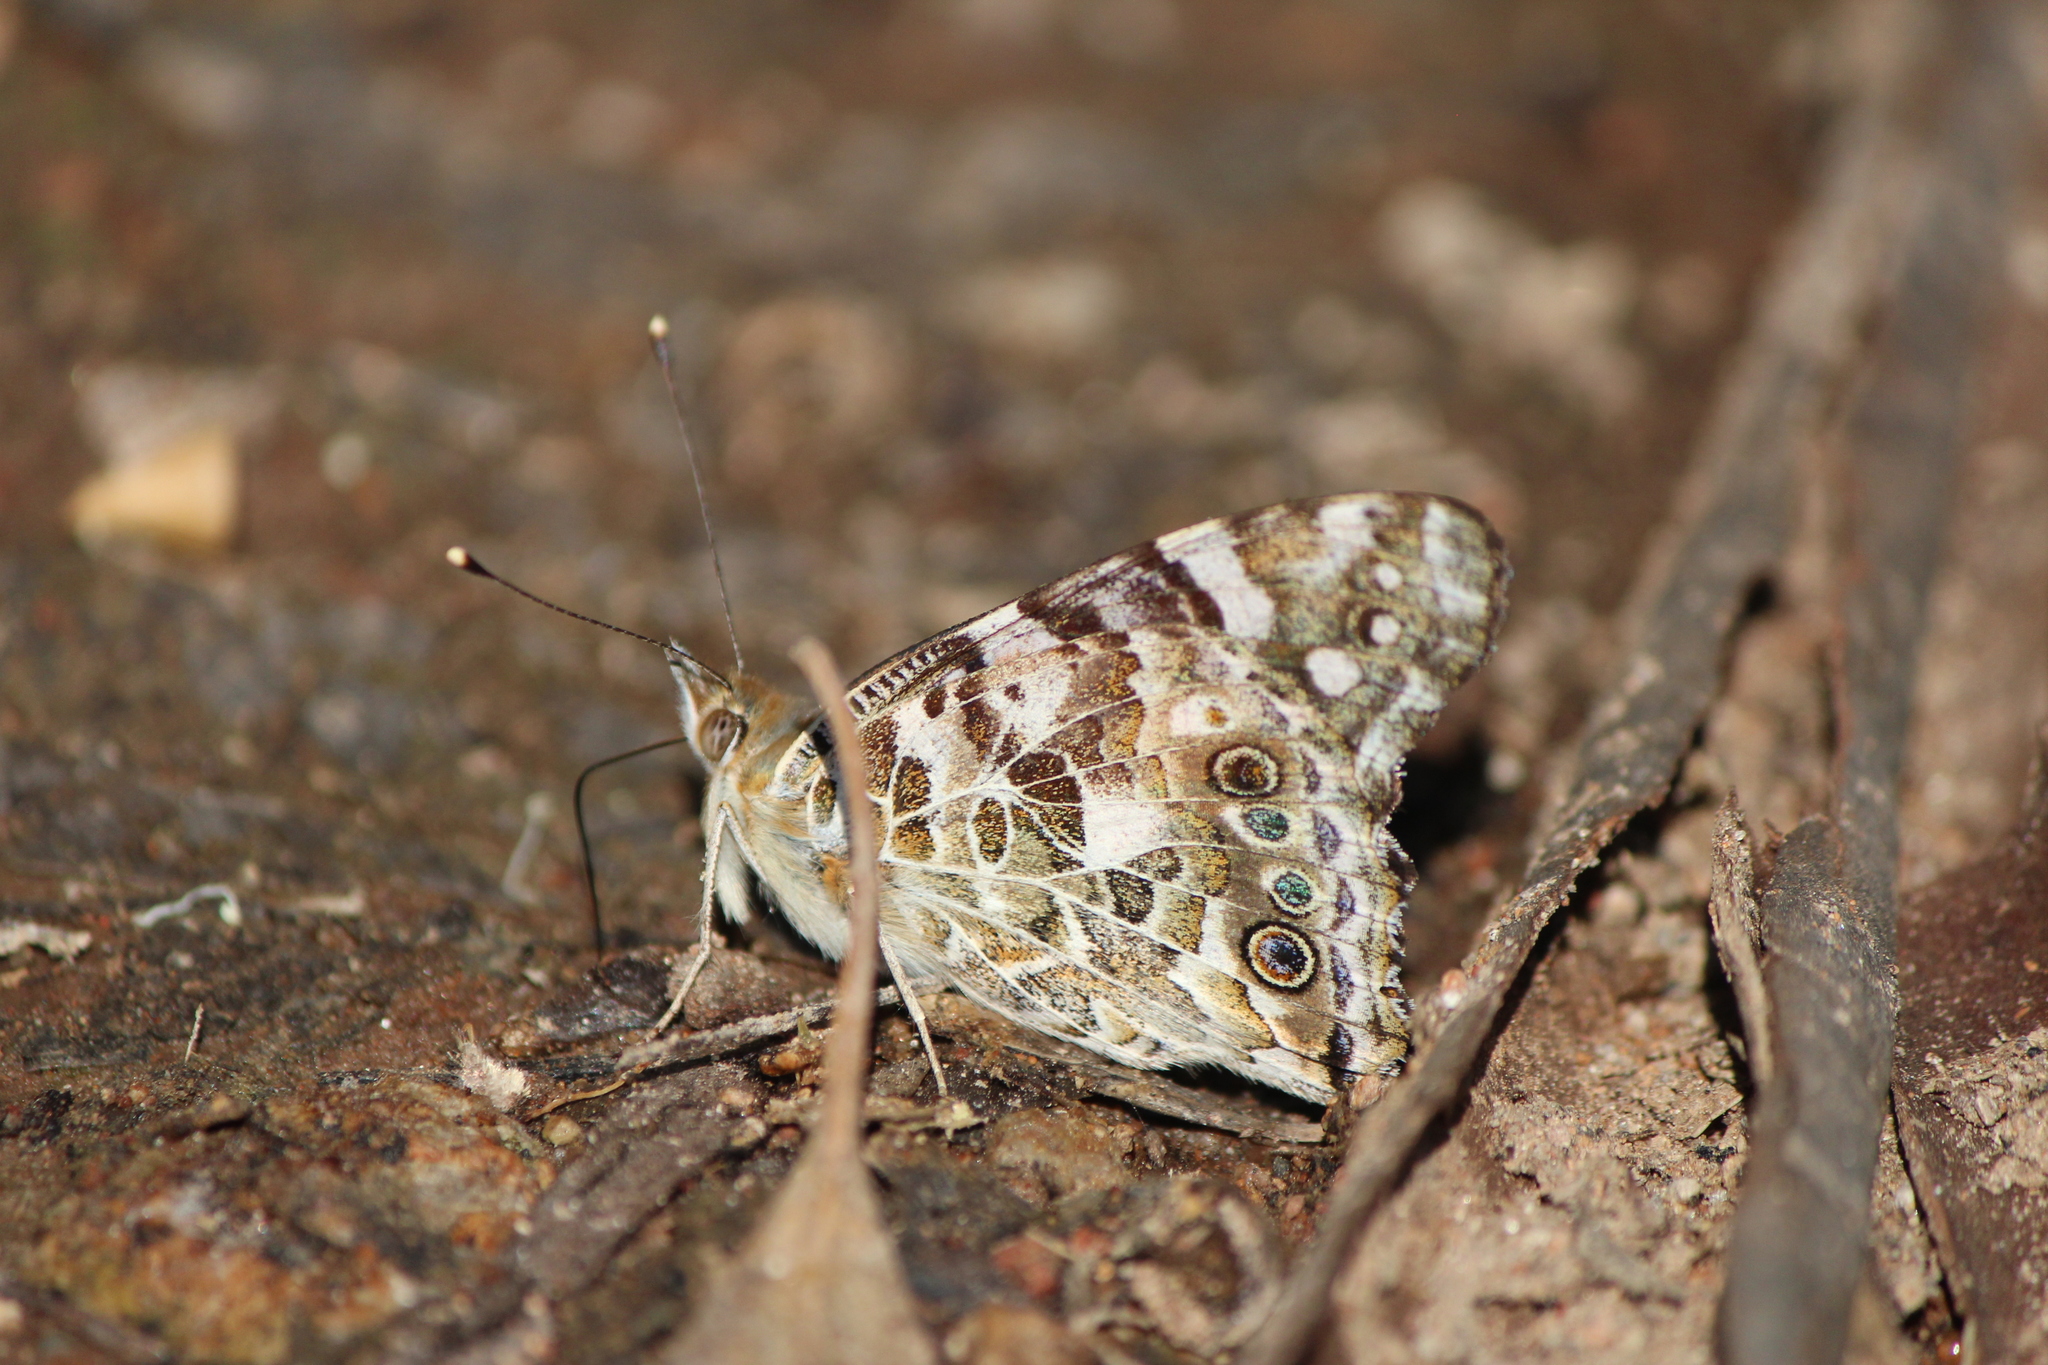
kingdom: Animalia
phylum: Arthropoda
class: Insecta
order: Lepidoptera
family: Nymphalidae
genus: Vanessa
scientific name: Vanessa cardui
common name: Painted lady
